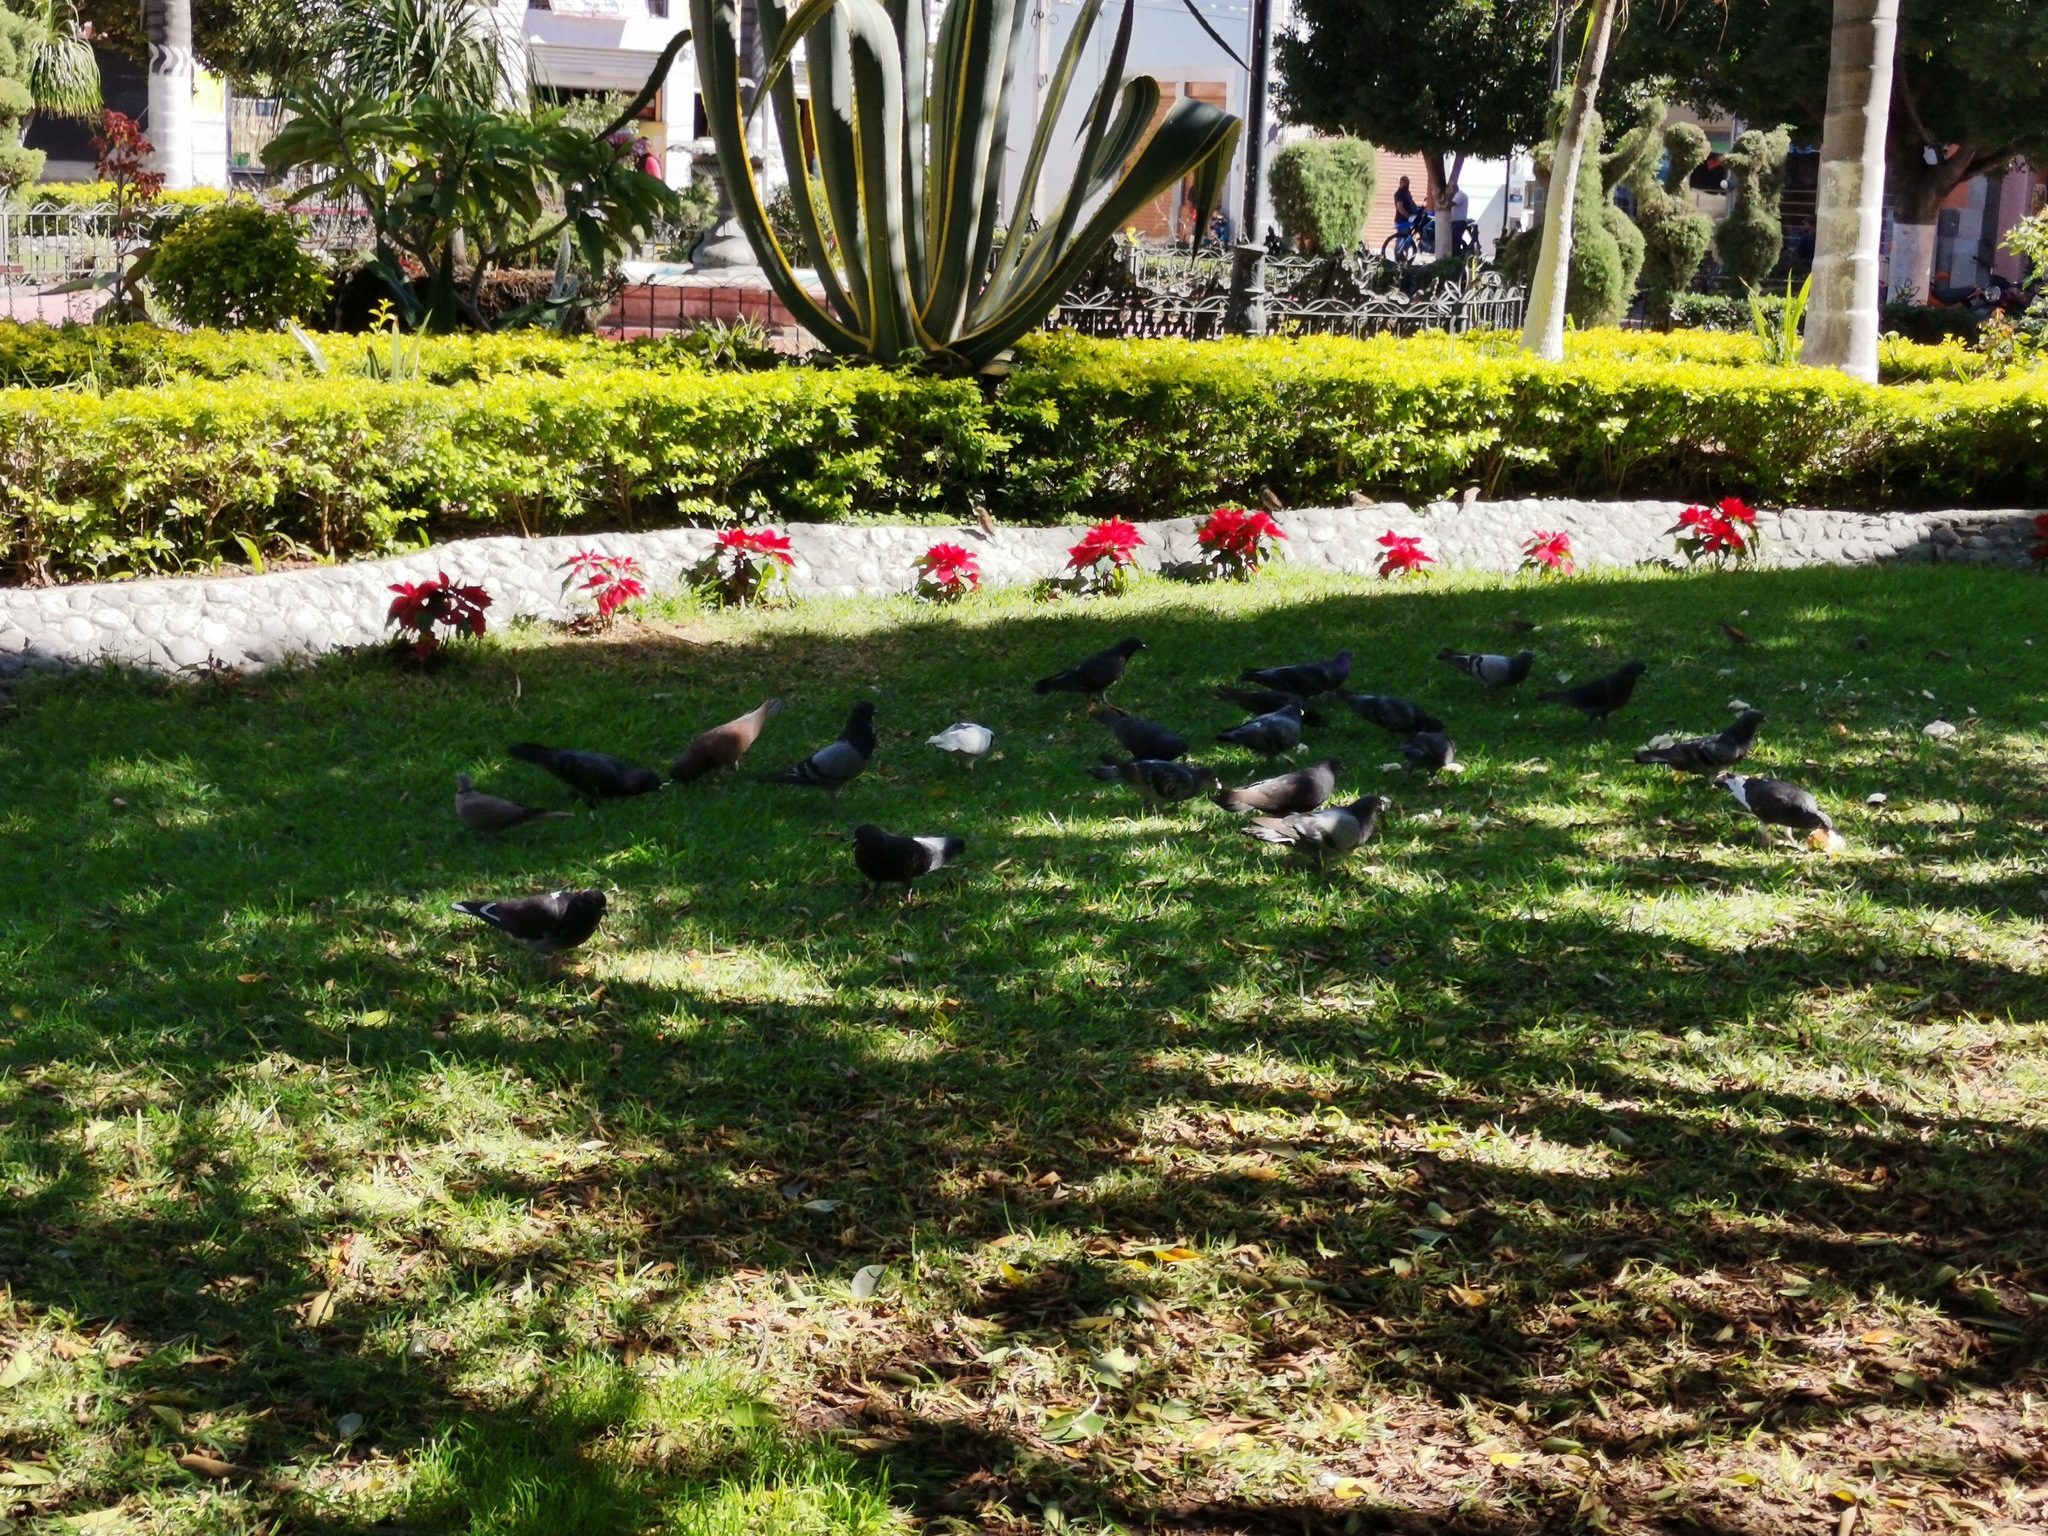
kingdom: Animalia
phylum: Chordata
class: Aves
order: Columbiformes
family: Columbidae
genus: Columba
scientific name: Columba livia
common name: Rock pigeon
